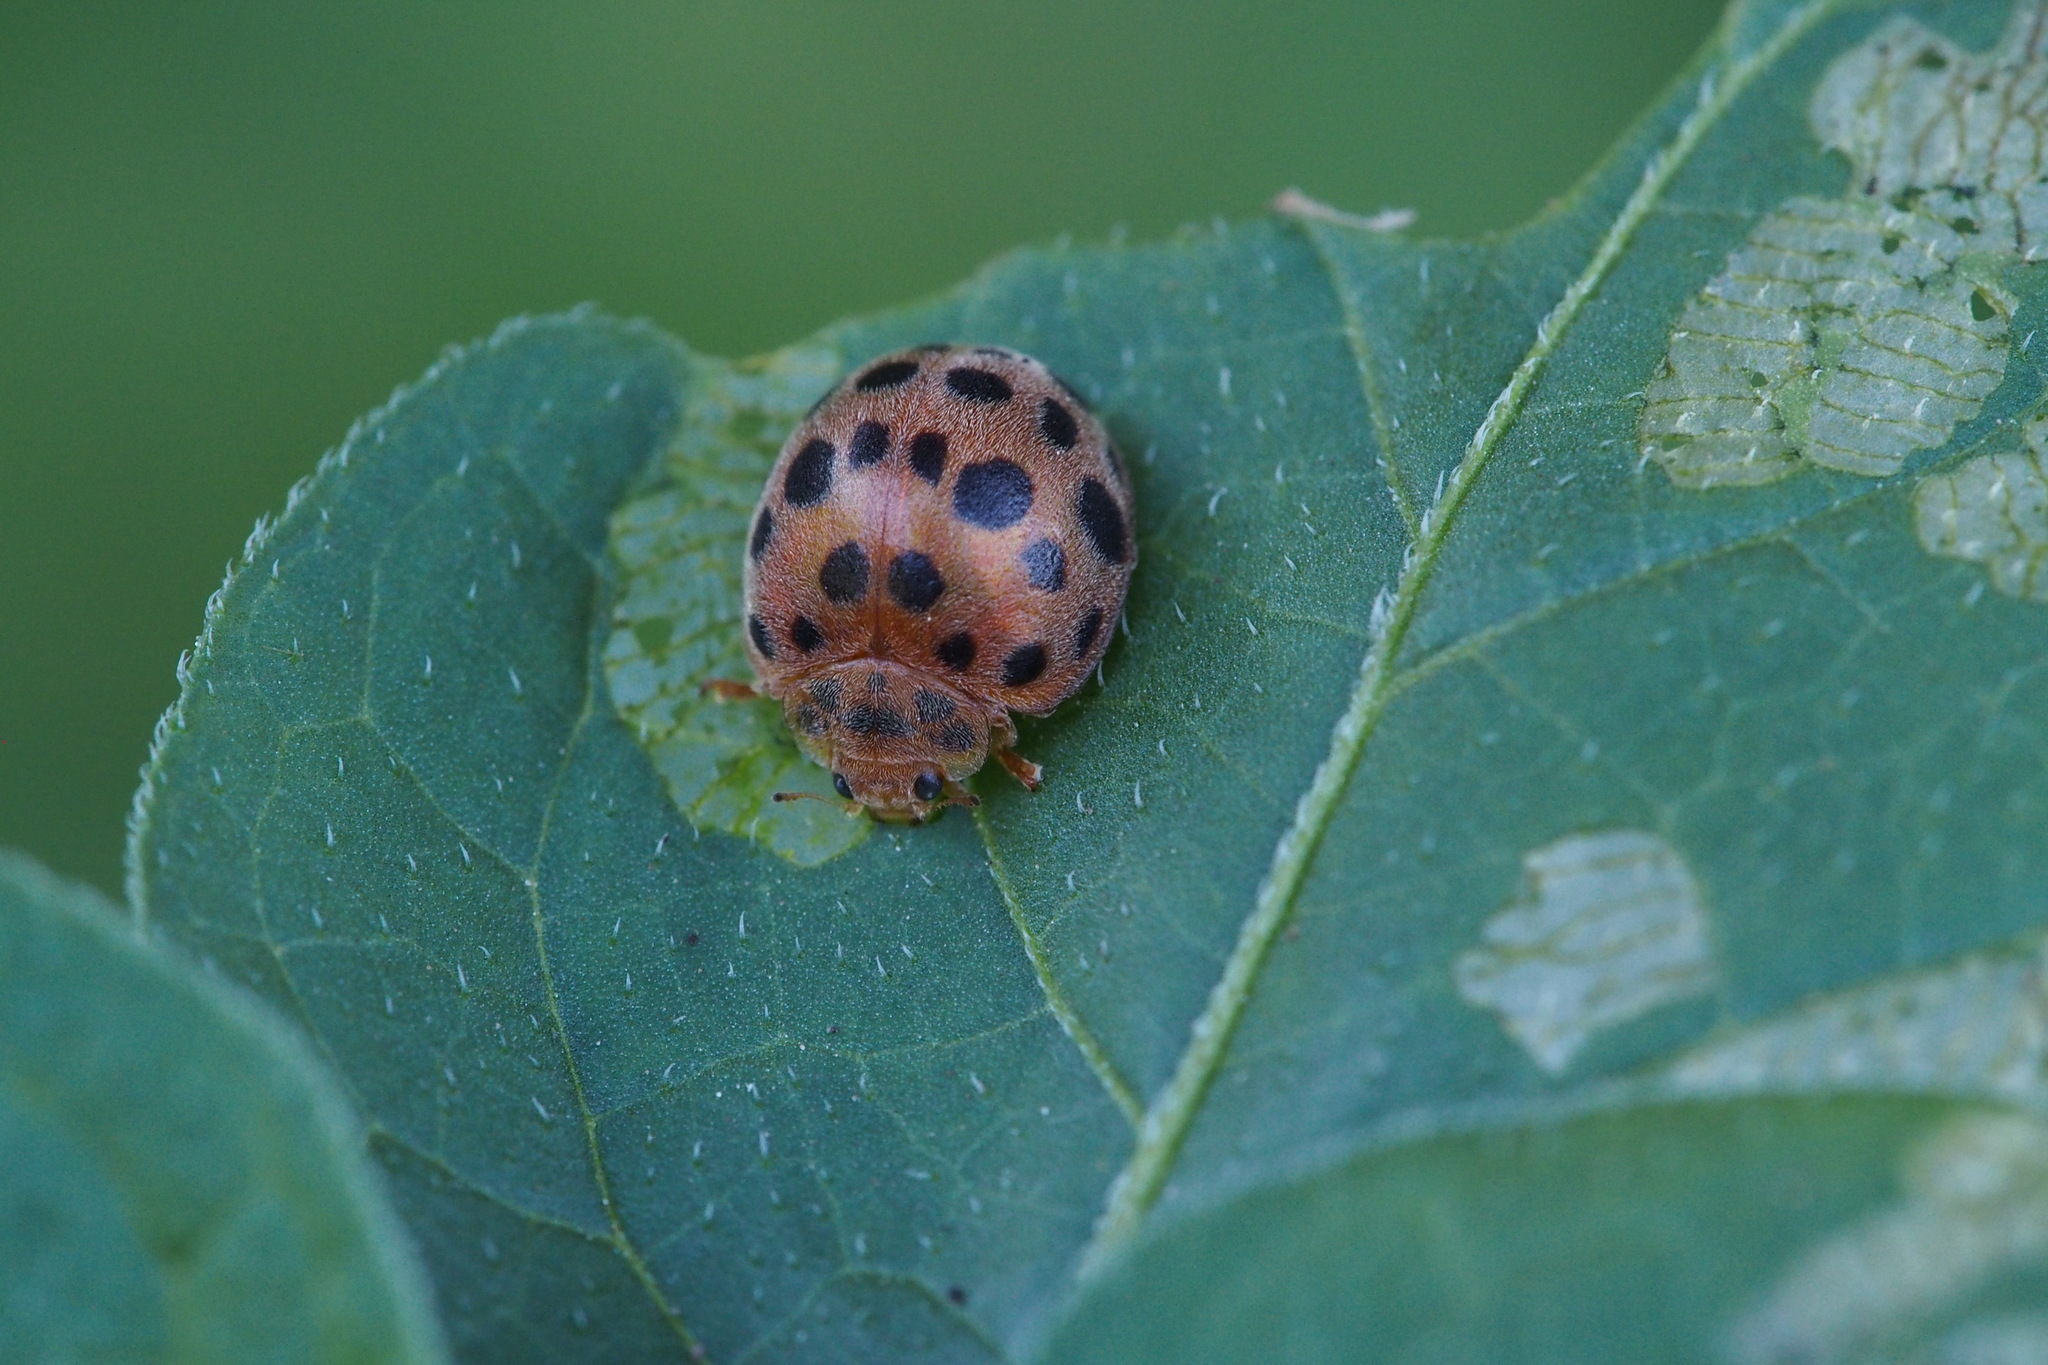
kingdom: Animalia
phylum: Arthropoda
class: Insecta
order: Coleoptera
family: Coccinellidae
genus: Henosepilachna
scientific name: Henosepilachna vigintioctopunctata
